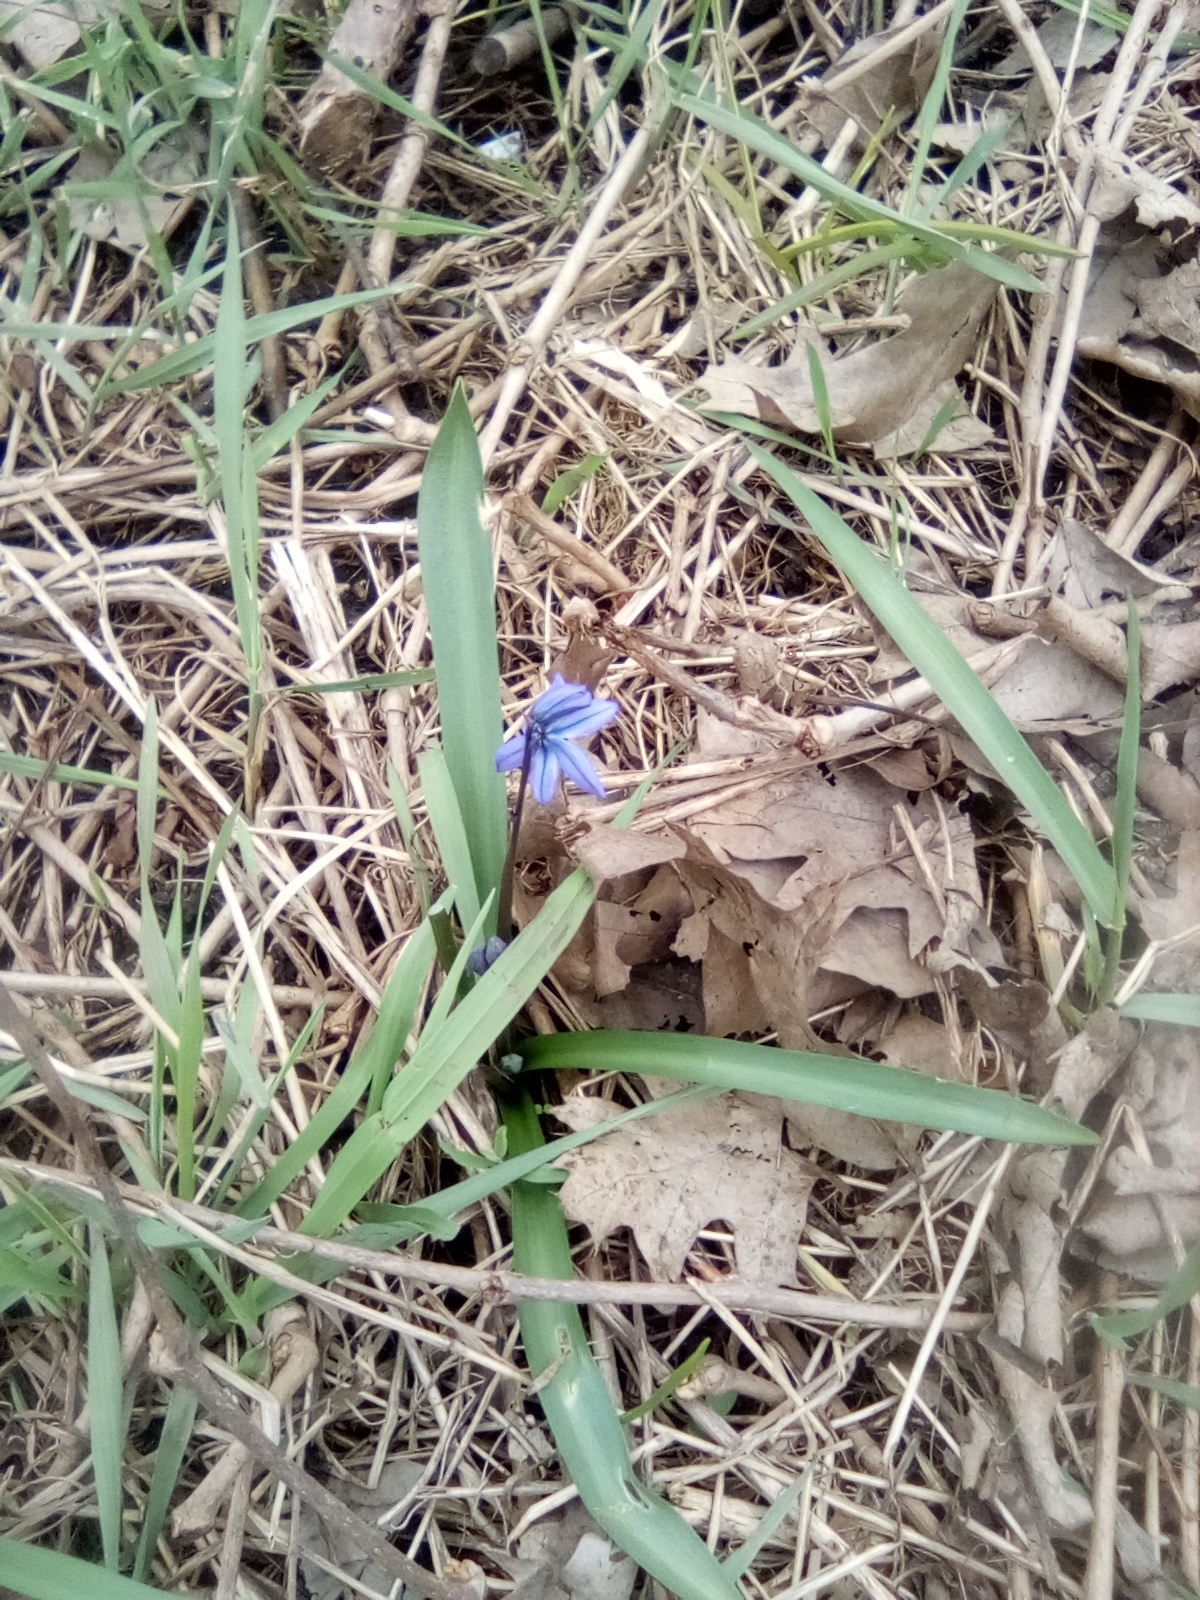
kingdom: Plantae
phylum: Tracheophyta
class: Liliopsida
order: Asparagales
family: Asparagaceae
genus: Scilla
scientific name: Scilla siberica
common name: Siberian squill
